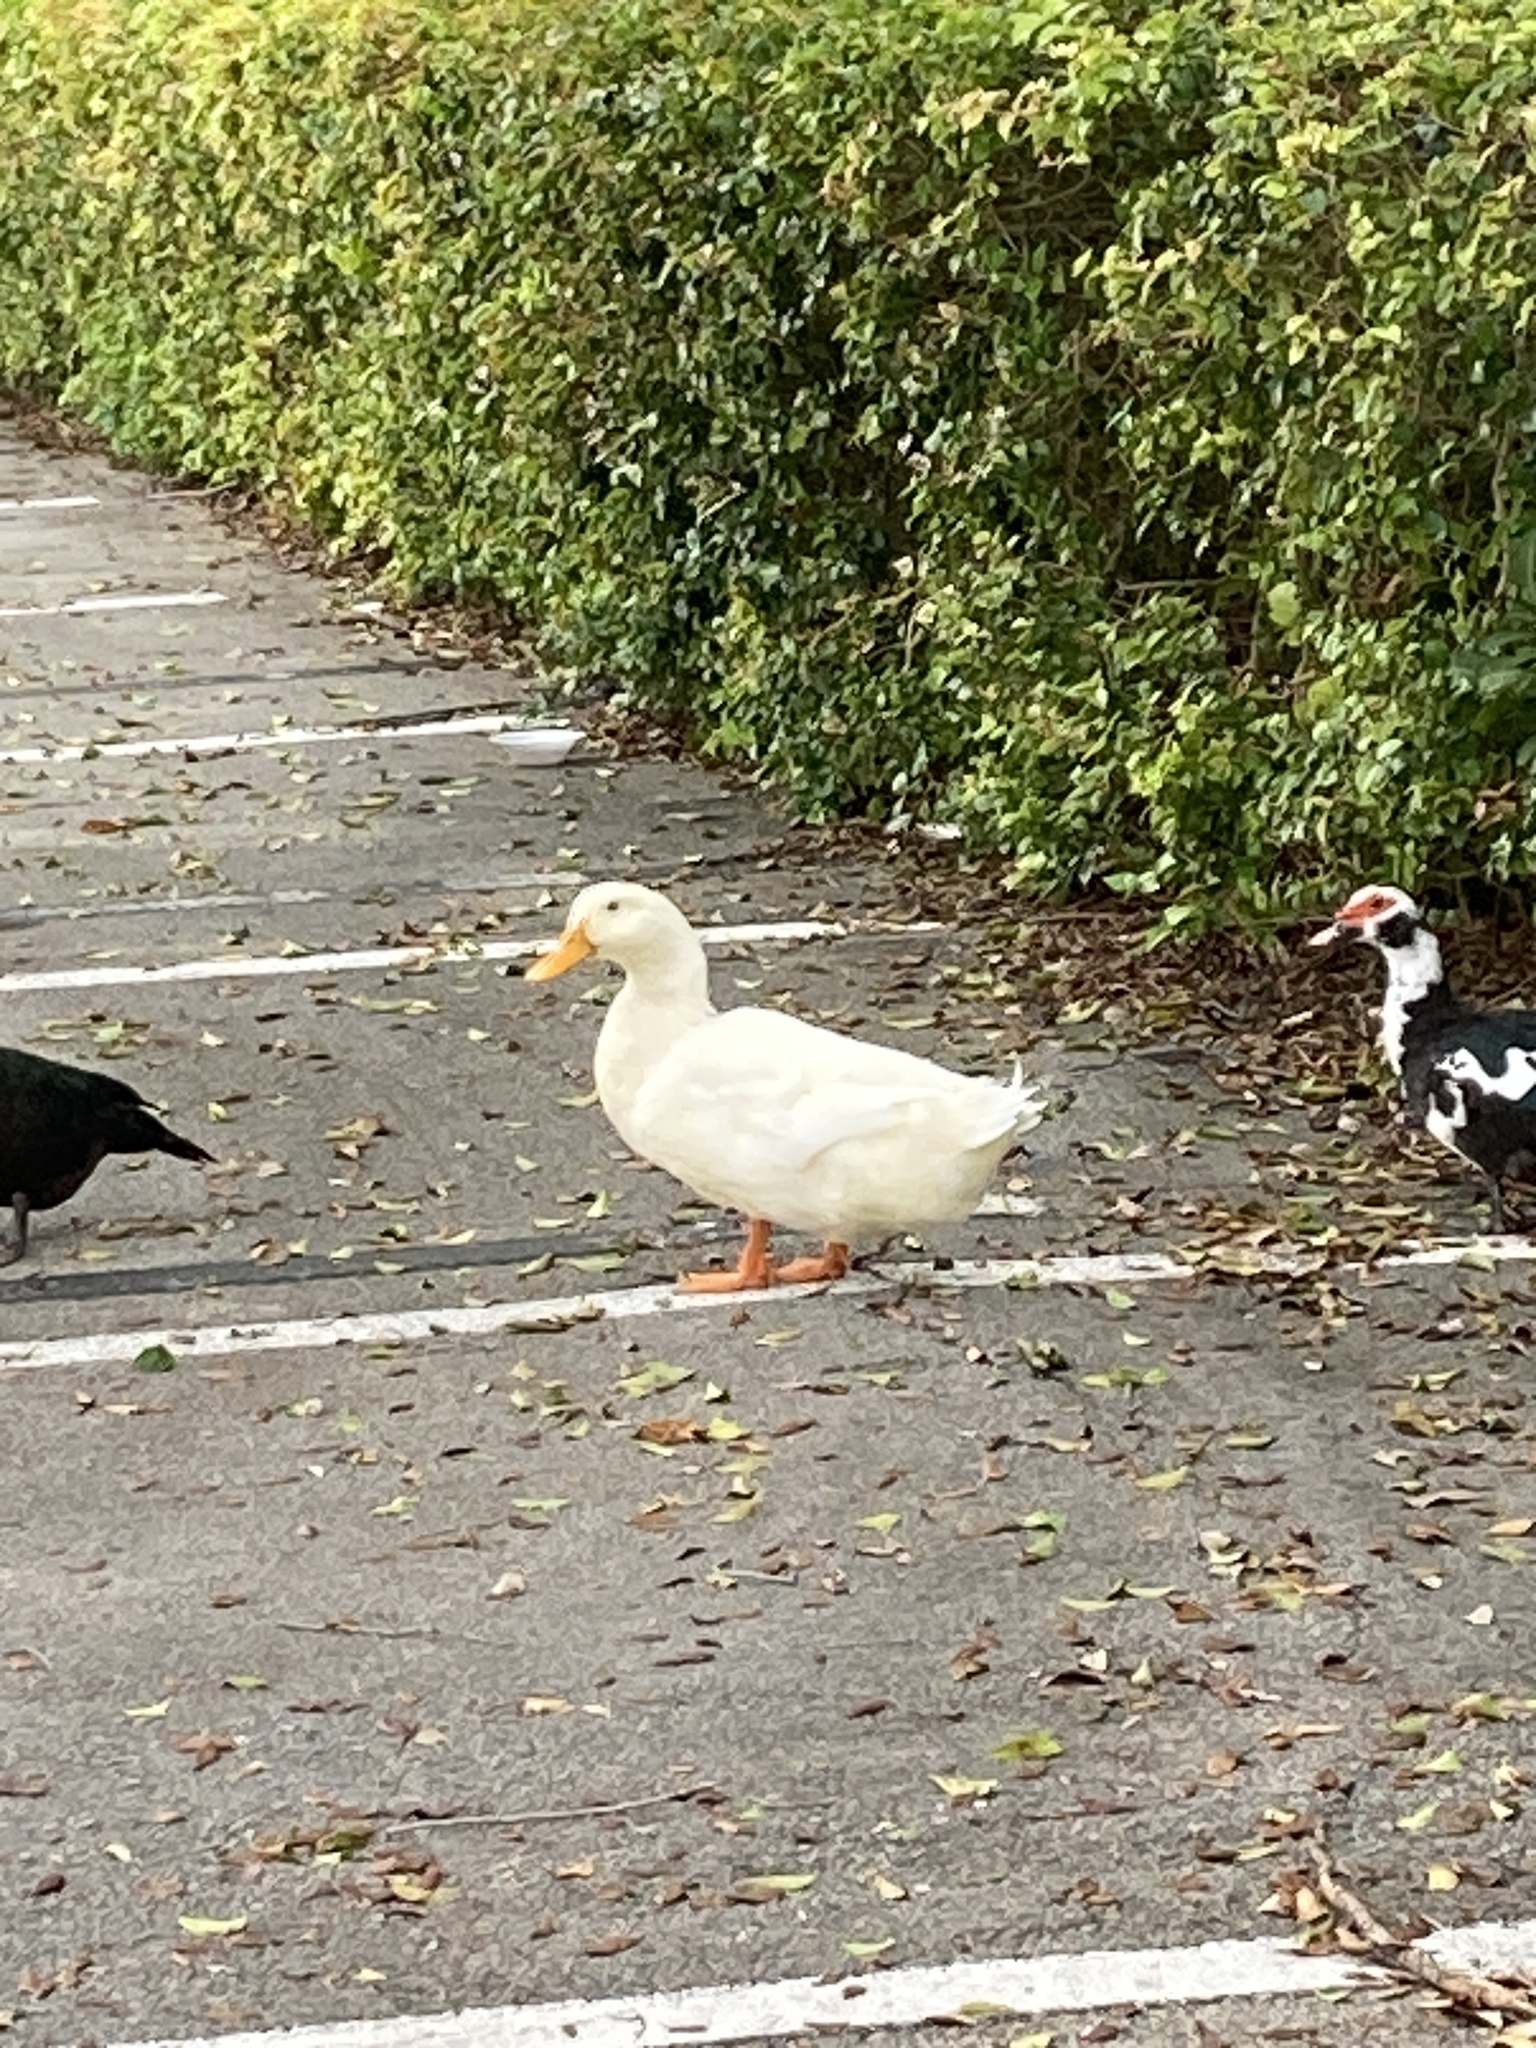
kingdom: Animalia
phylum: Chordata
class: Aves
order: Anseriformes
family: Anatidae
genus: Anas
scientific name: Anas platyrhynchos
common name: Mallard
